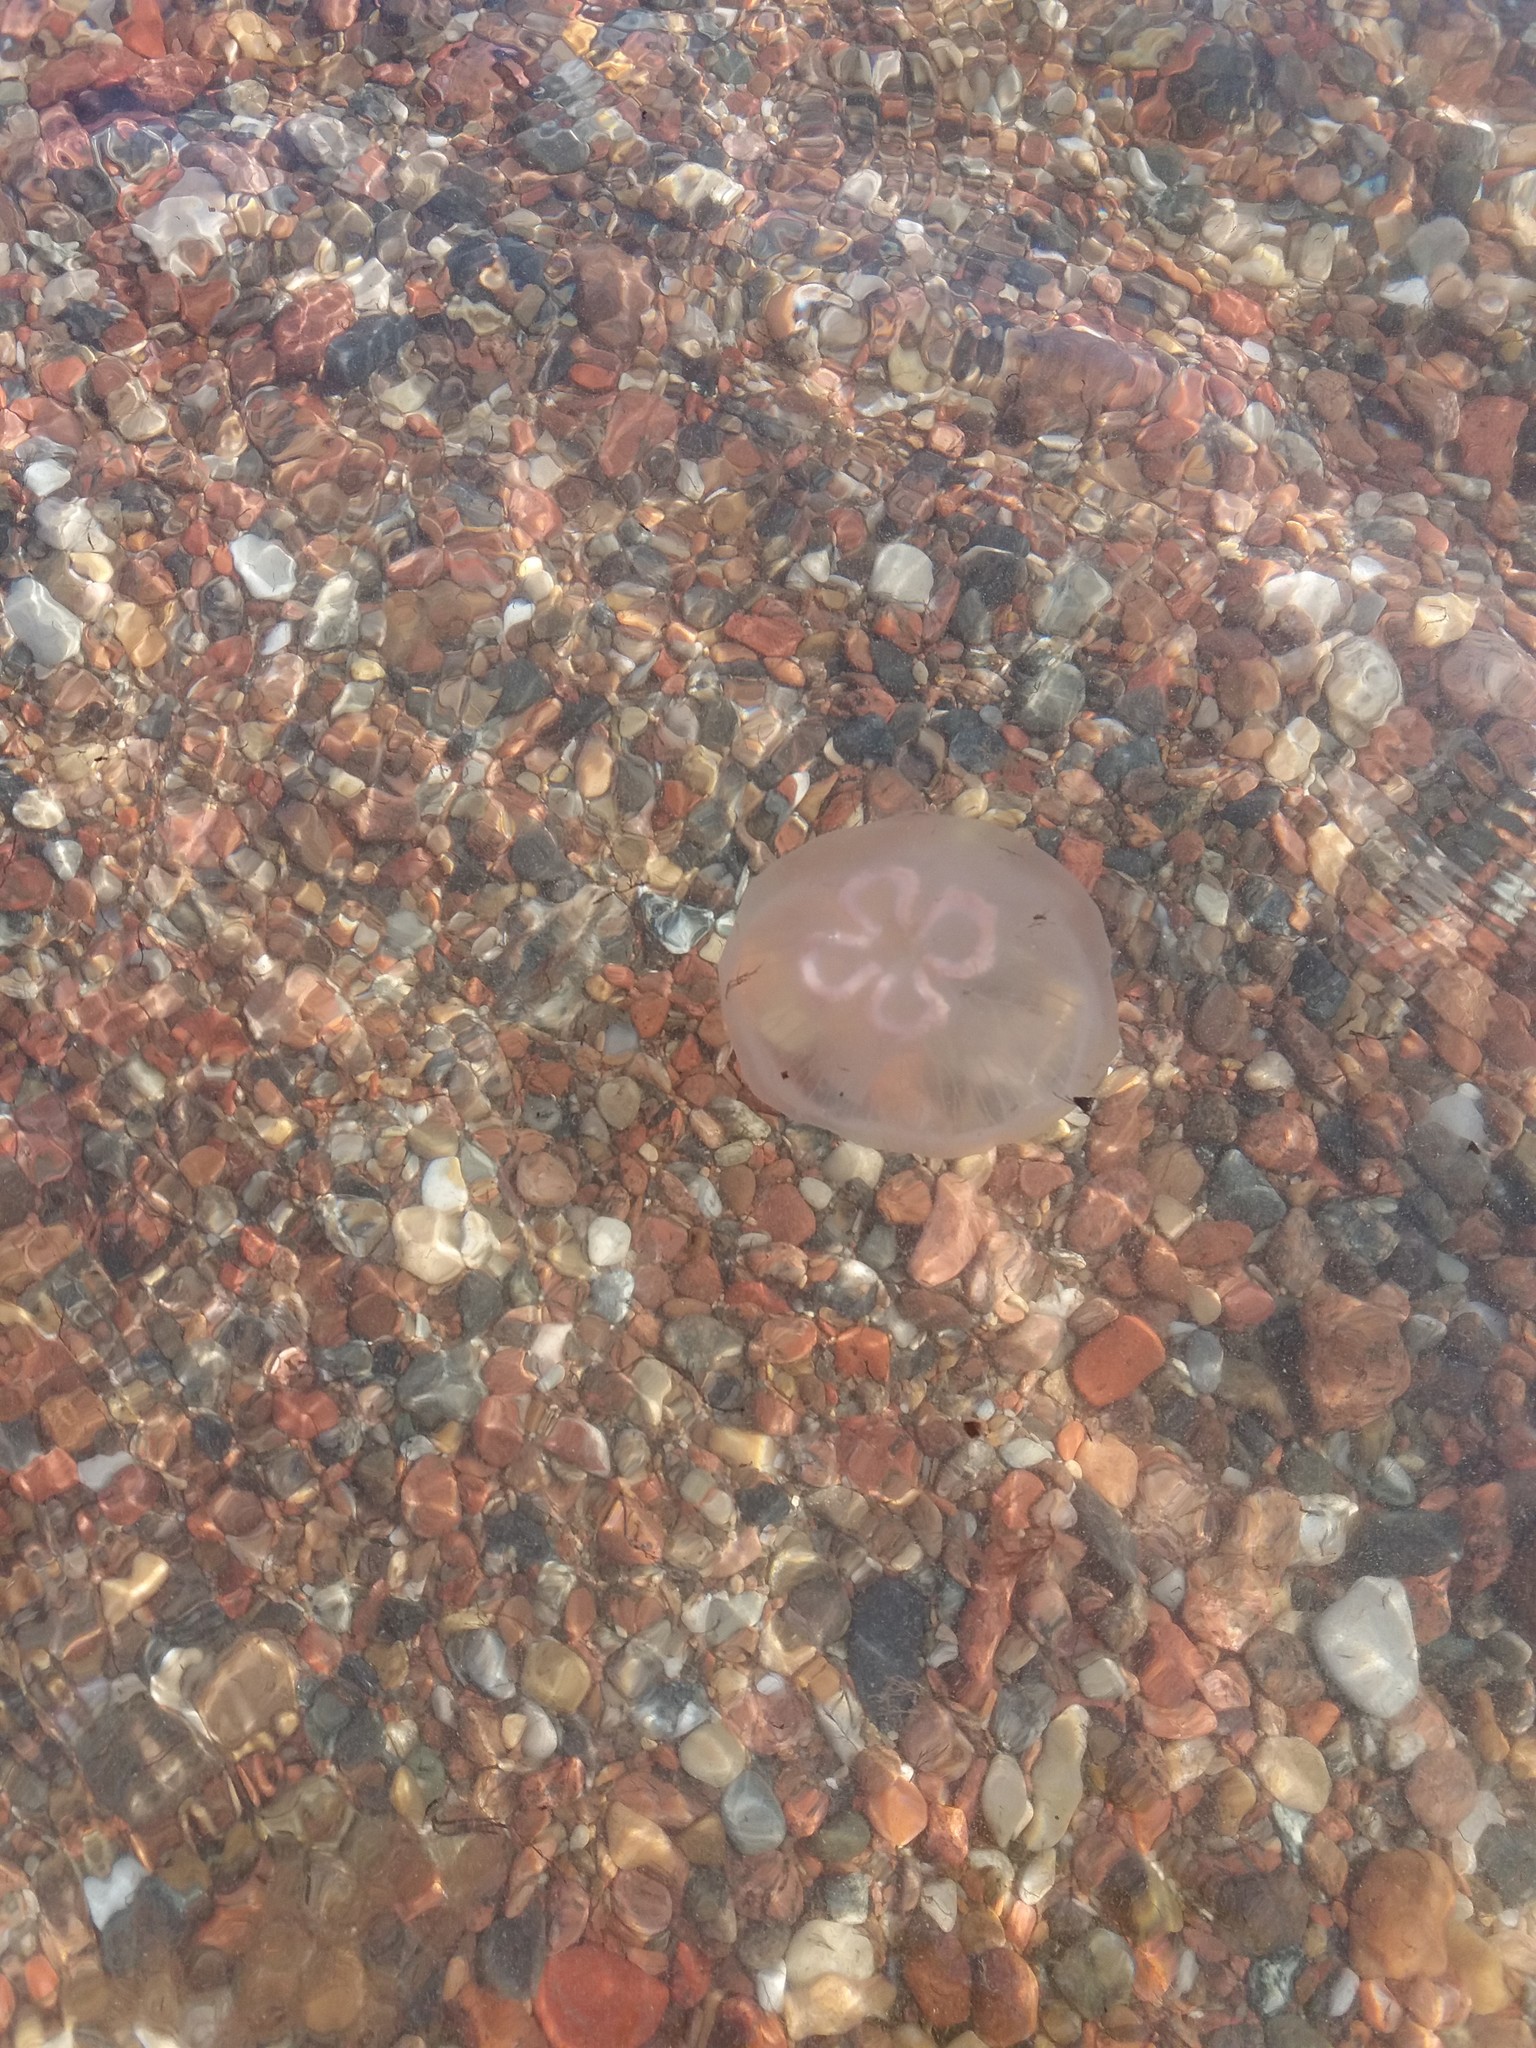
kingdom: Animalia
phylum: Cnidaria
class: Scyphozoa
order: Semaeostomeae
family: Ulmaridae
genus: Aurelia
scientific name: Aurelia aurita
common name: Moon jellyfish
